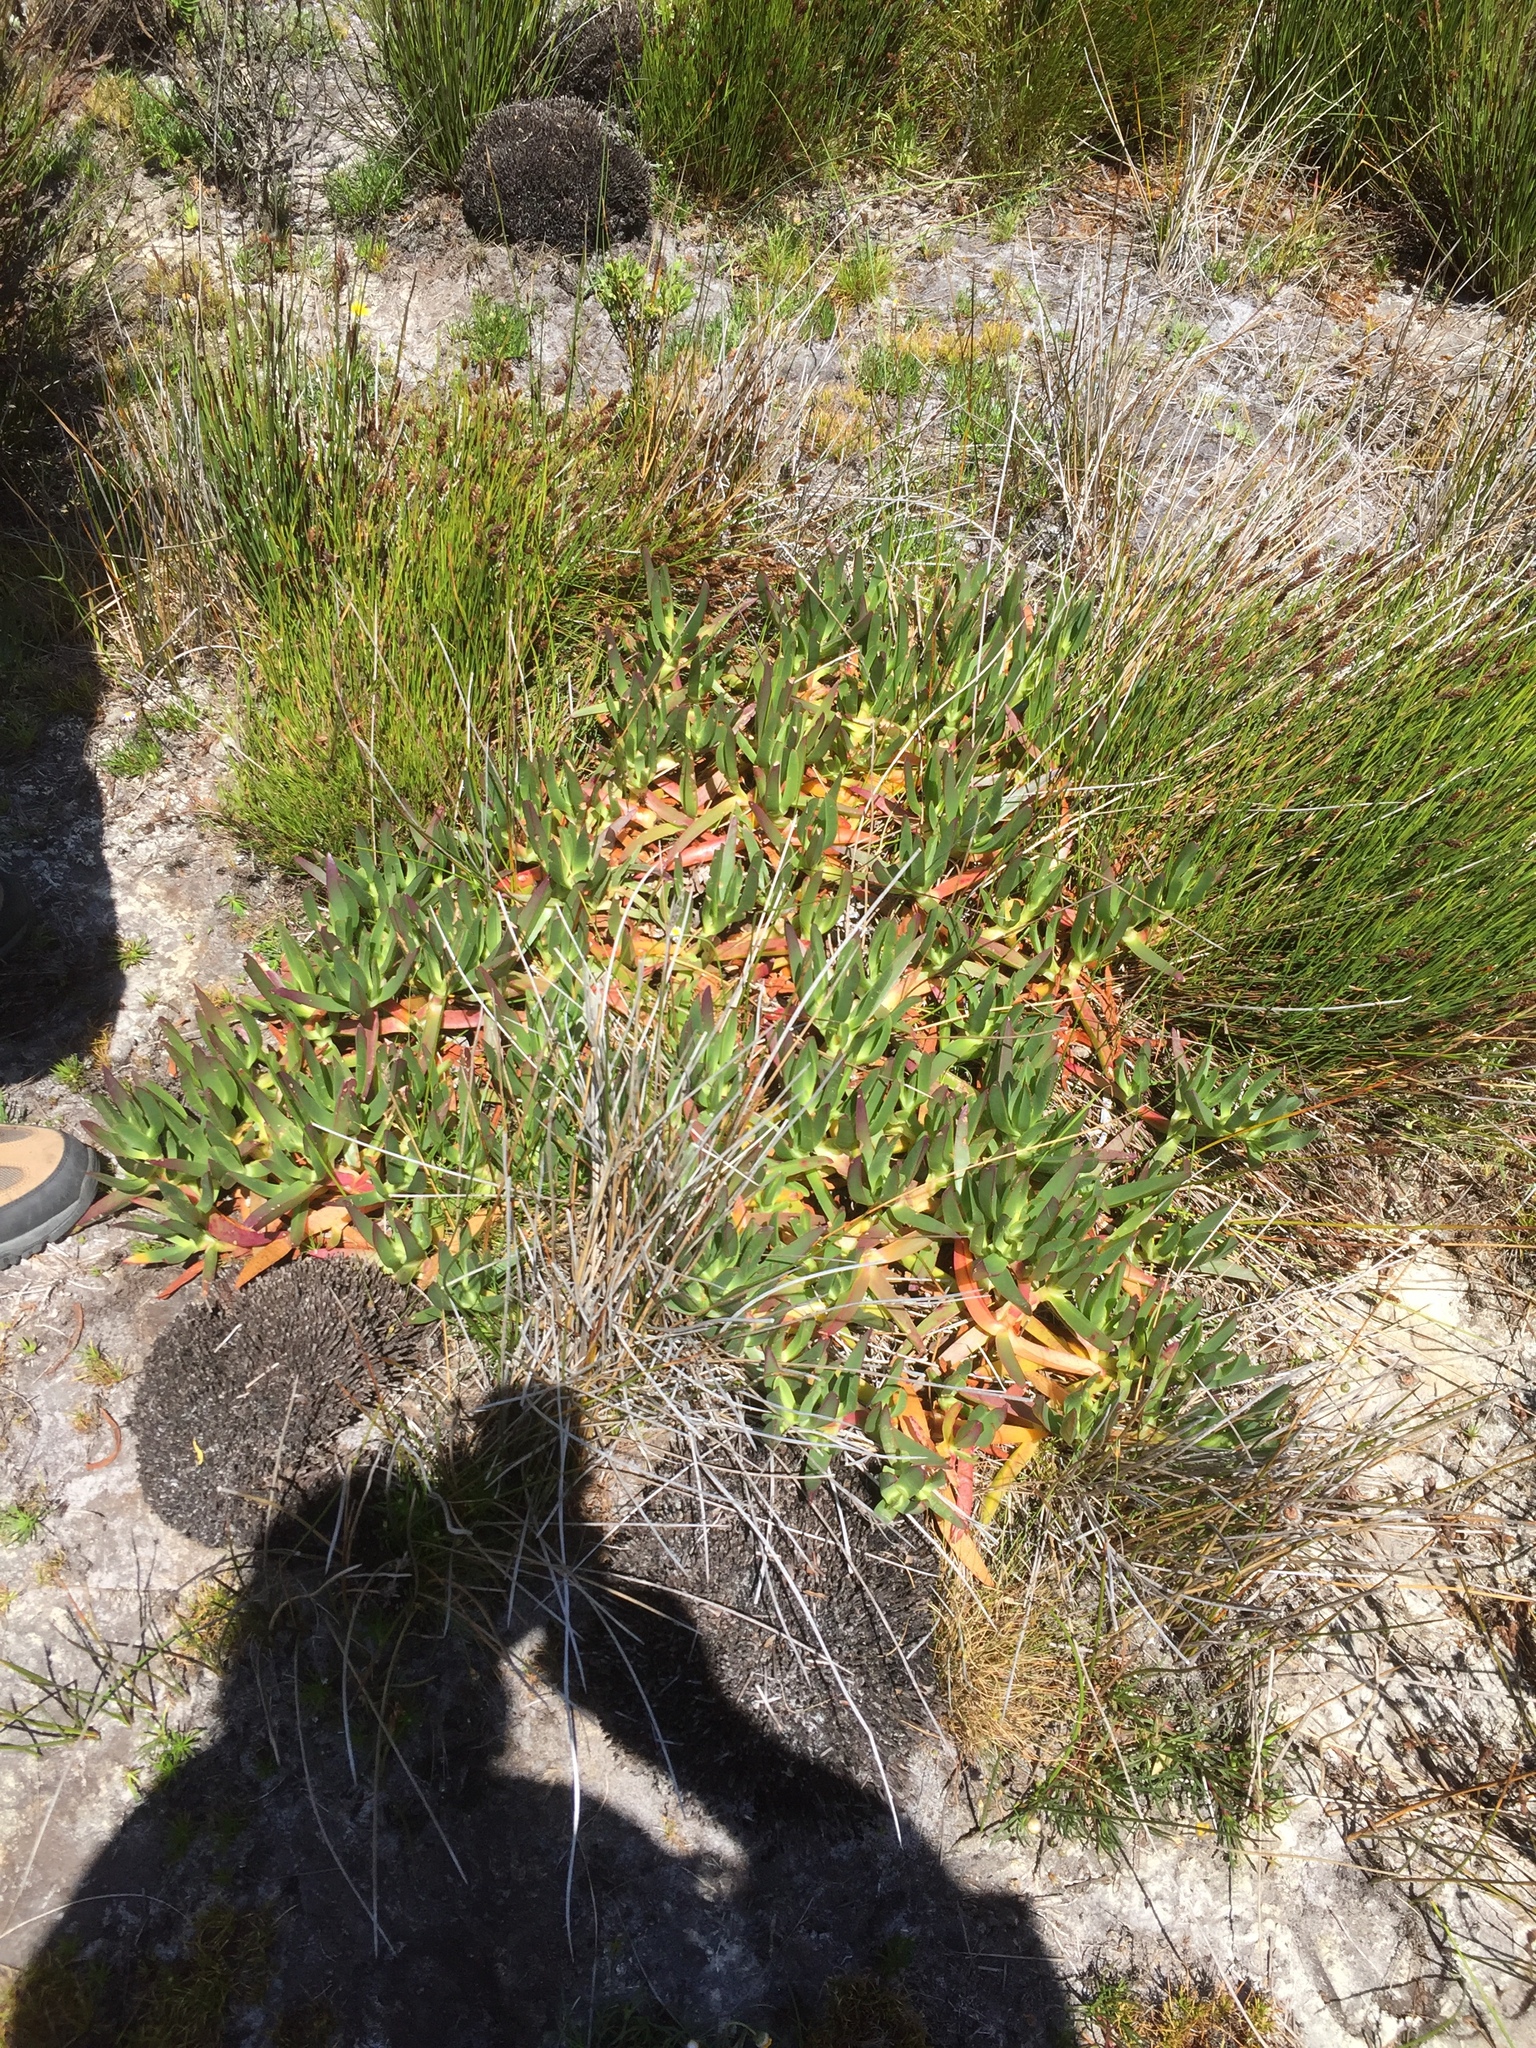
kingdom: Plantae
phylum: Tracheophyta
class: Magnoliopsida
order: Caryophyllales
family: Aizoaceae
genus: Carpobrotus
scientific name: Carpobrotus edulis
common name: Hottentot-fig
